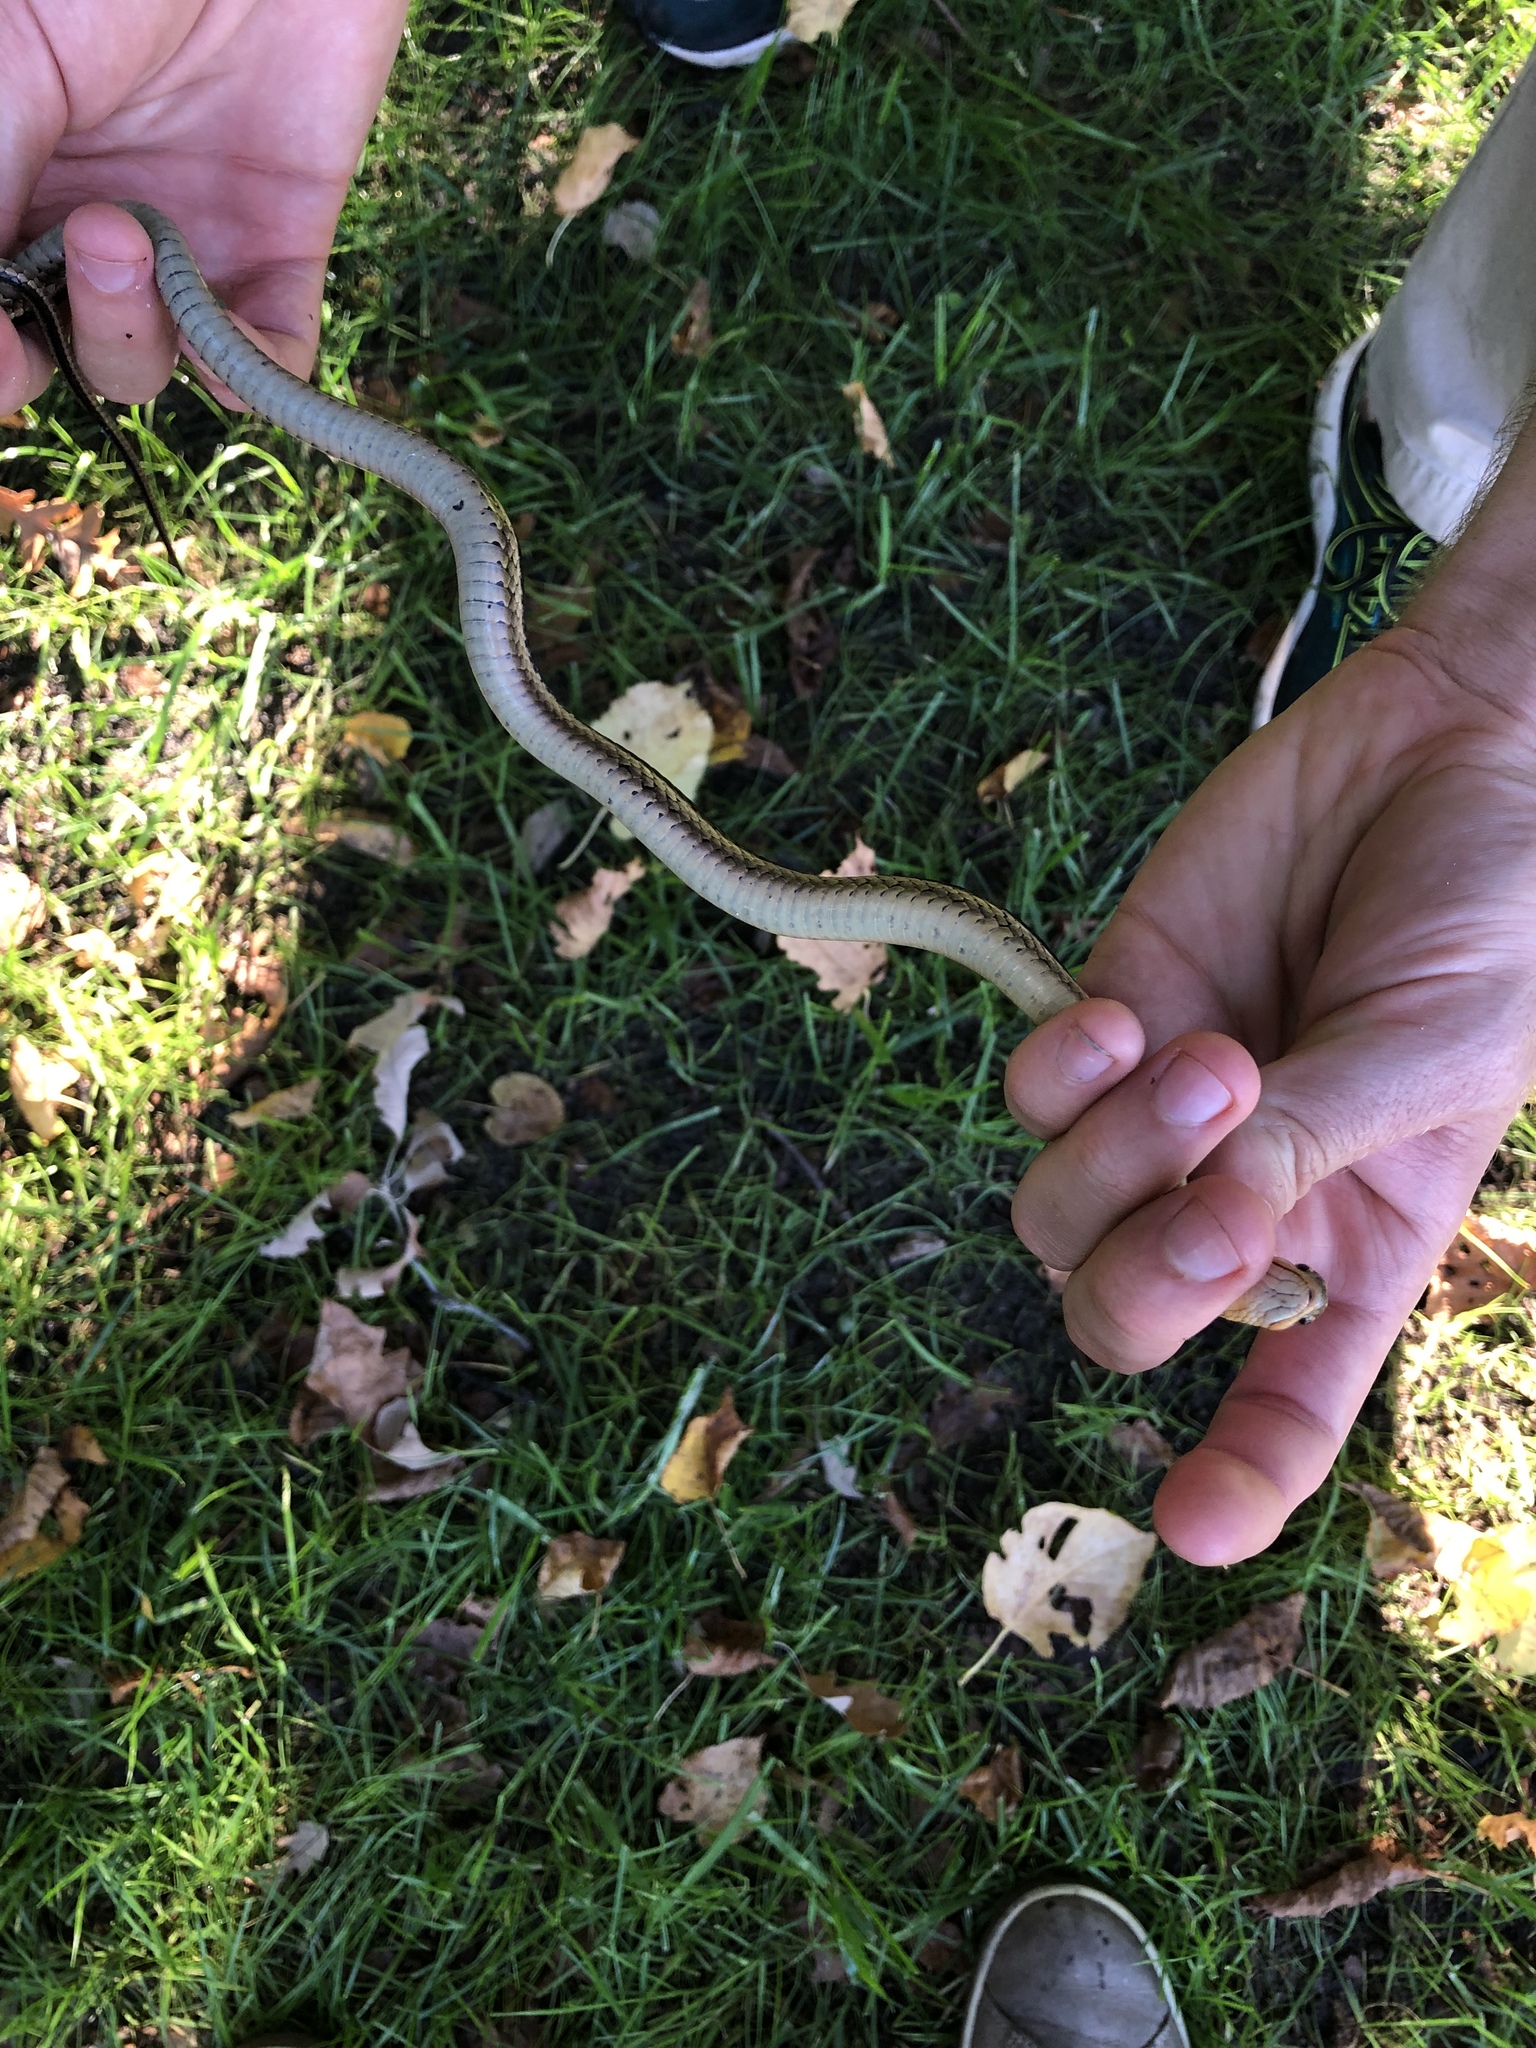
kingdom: Animalia
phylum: Chordata
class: Squamata
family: Colubridae
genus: Thamnophis
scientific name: Thamnophis sirtalis
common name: Common garter snake
